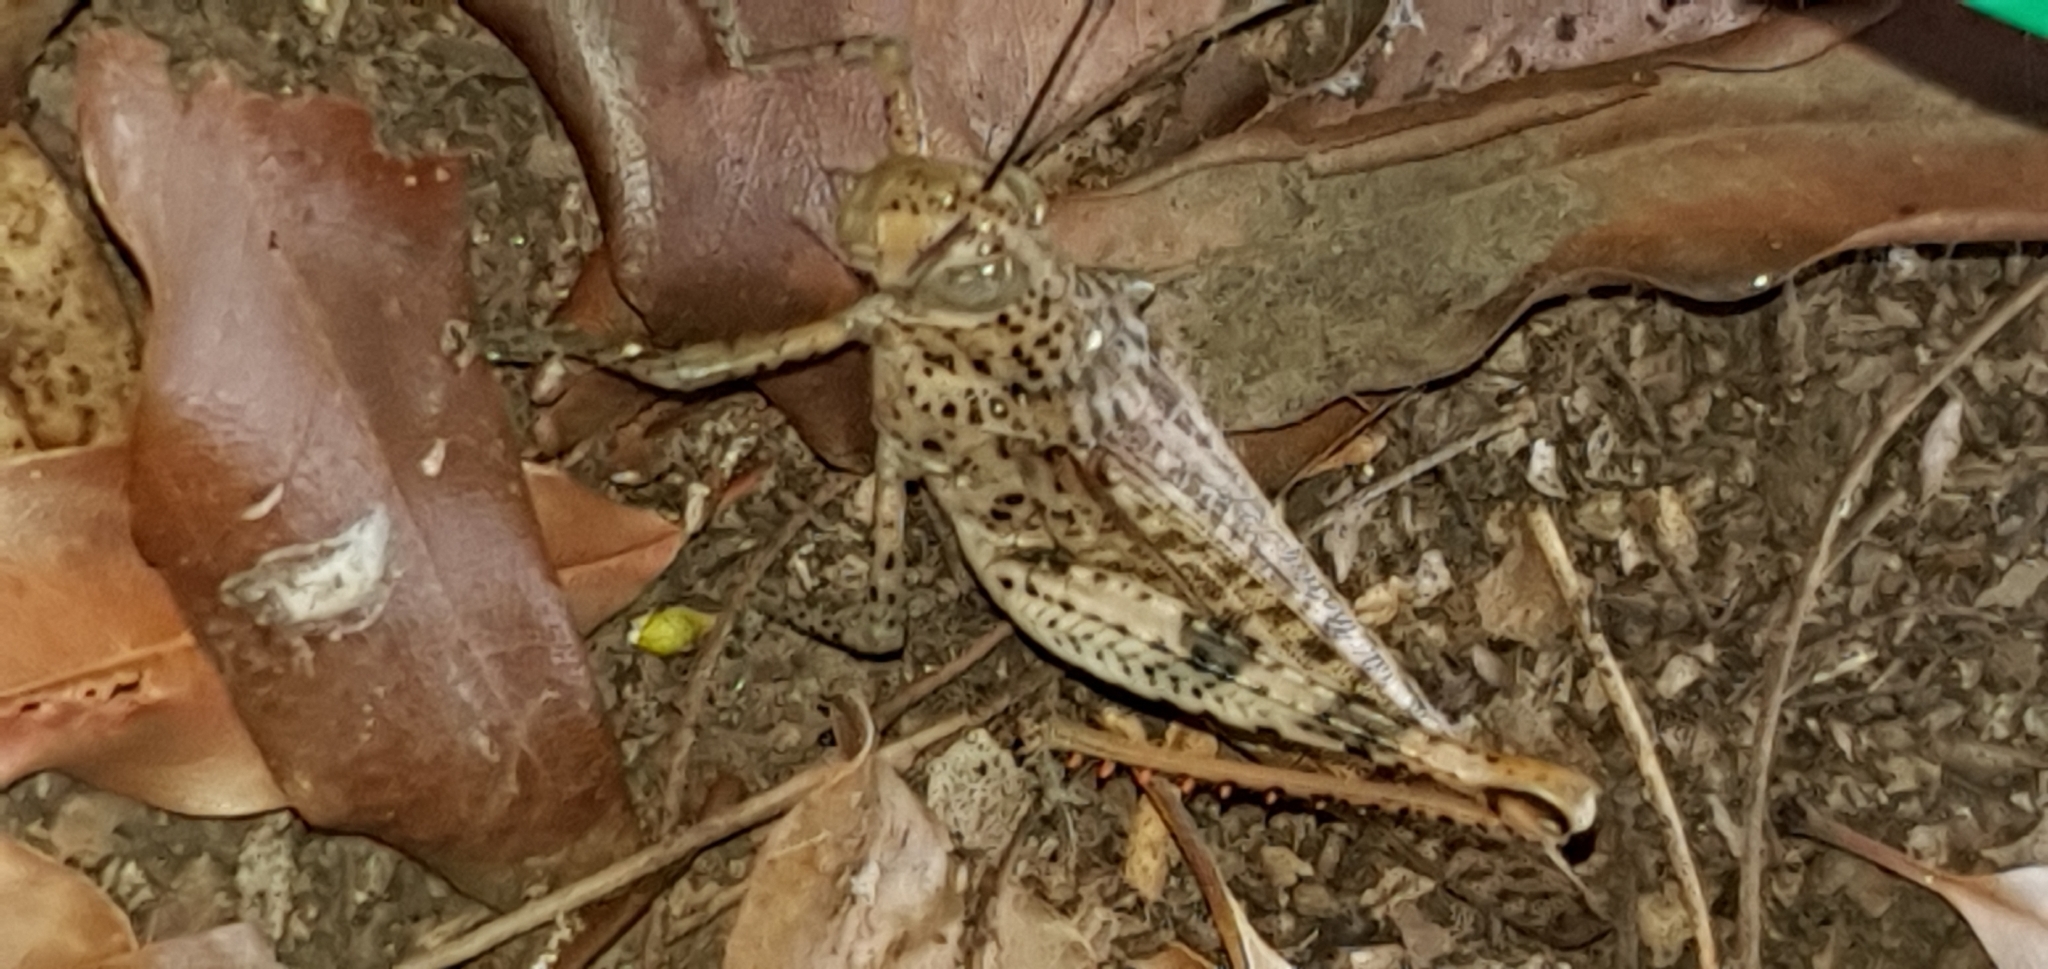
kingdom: Animalia
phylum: Arthropoda
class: Insecta
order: Orthoptera
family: Acrididae
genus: Valanga
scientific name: Valanga irregularis
